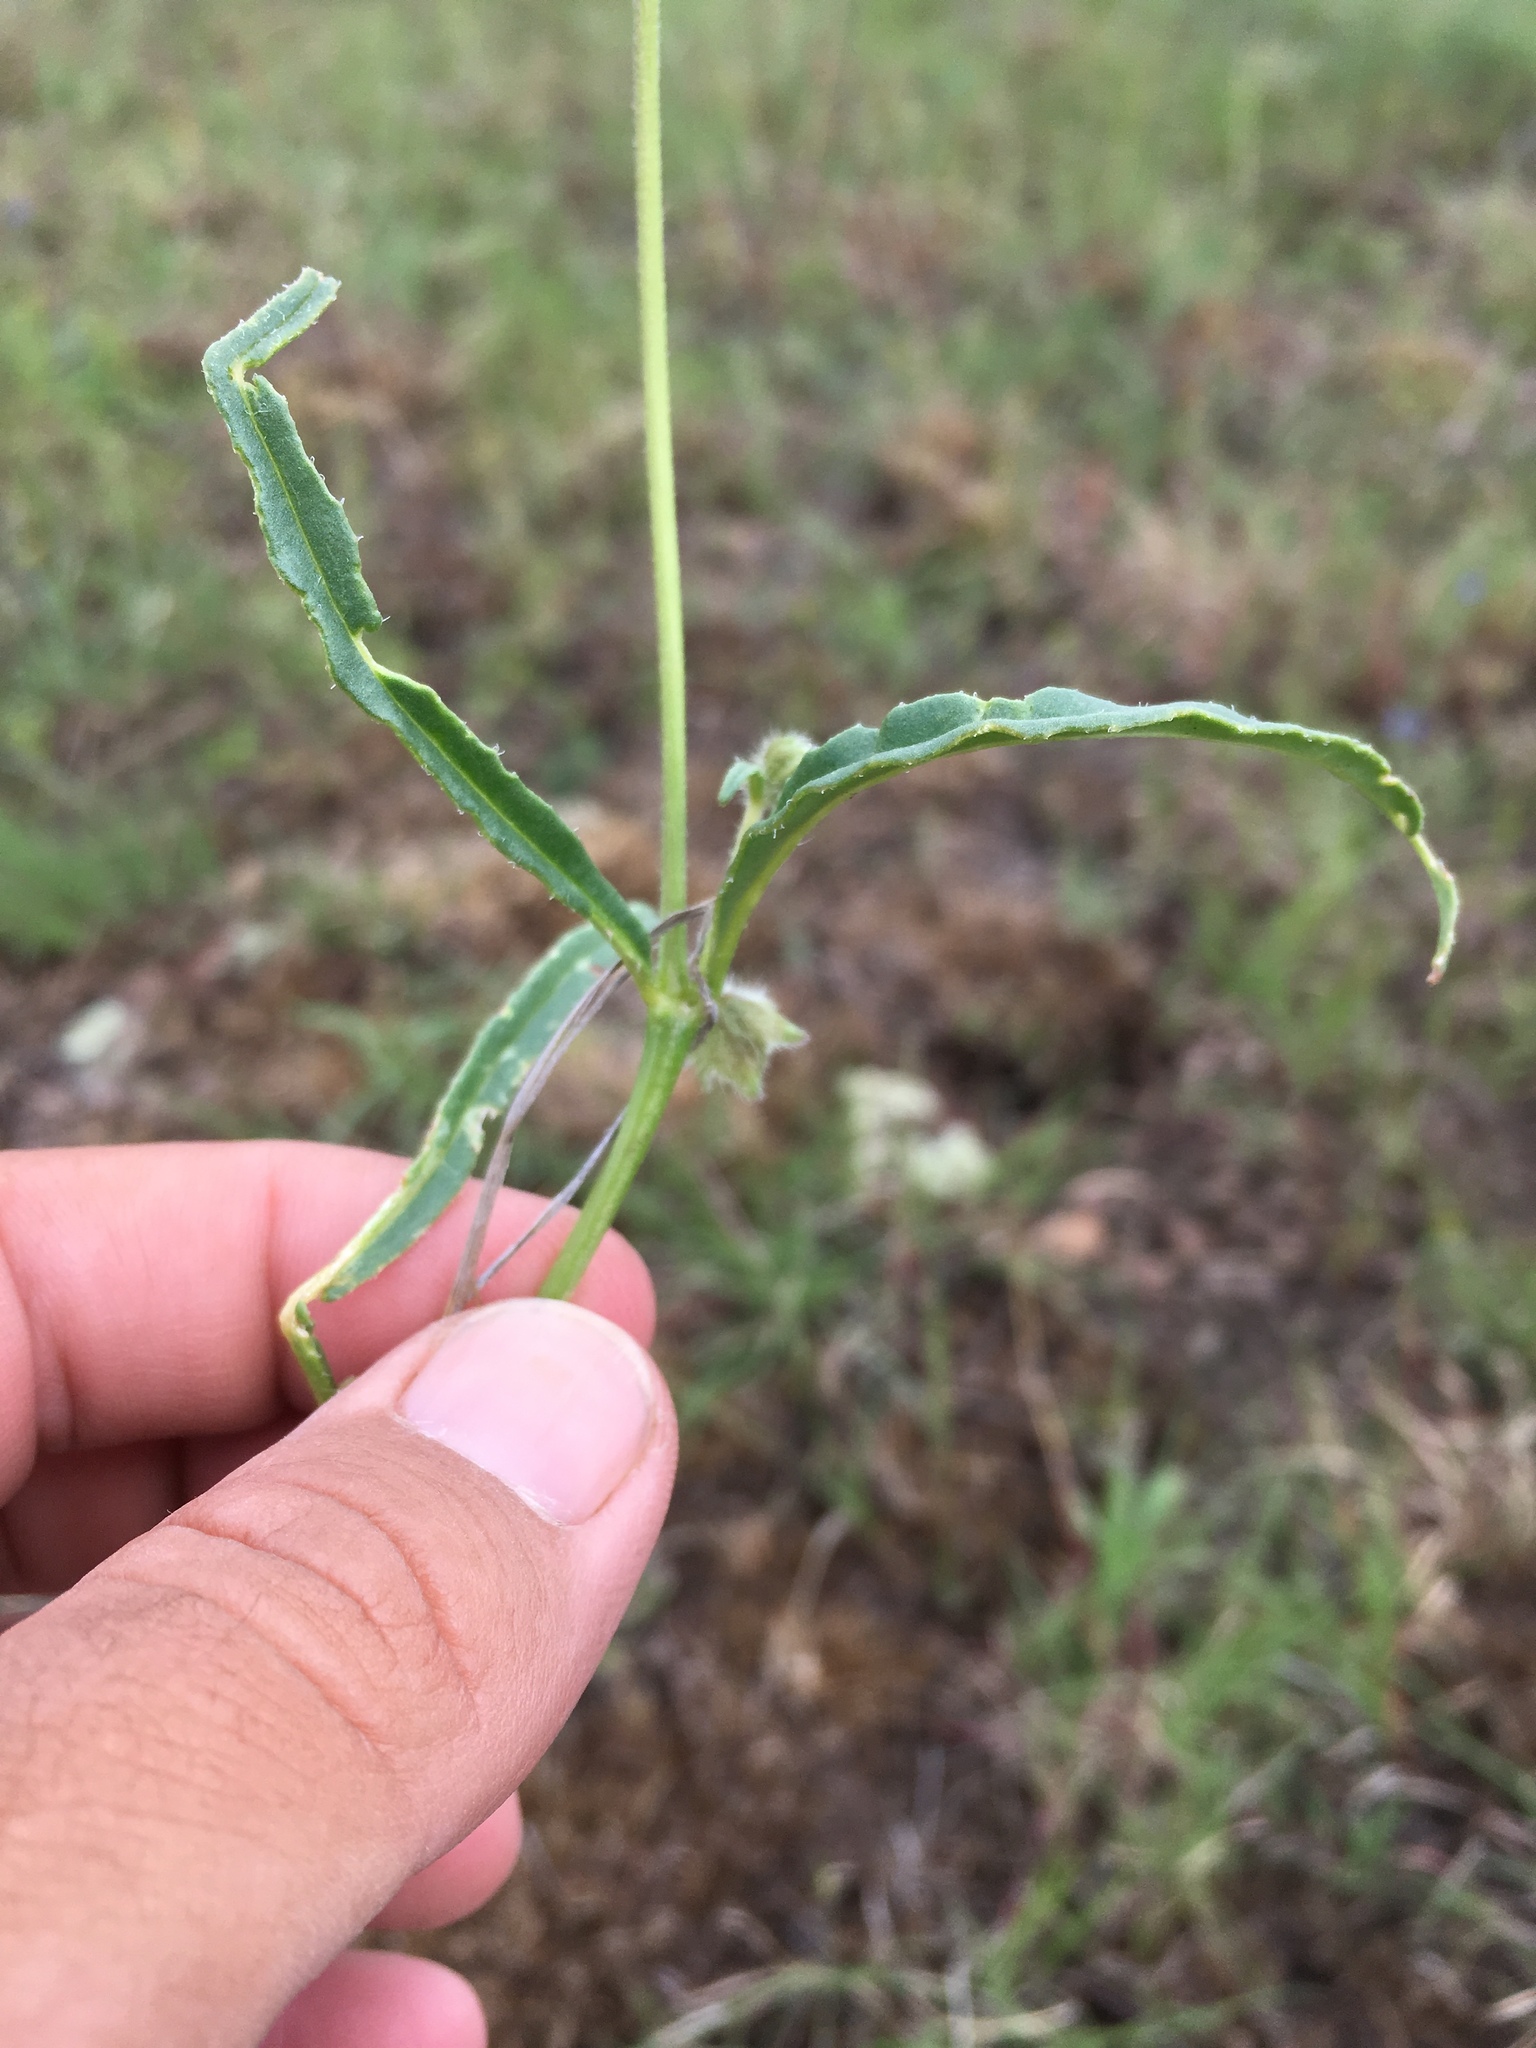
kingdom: Plantae
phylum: Tracheophyta
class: Magnoliopsida
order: Caryophyllales
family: Nyctaginaceae
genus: Mirabilis
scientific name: Mirabilis linearis
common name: Linear-leaved four-o'clock
